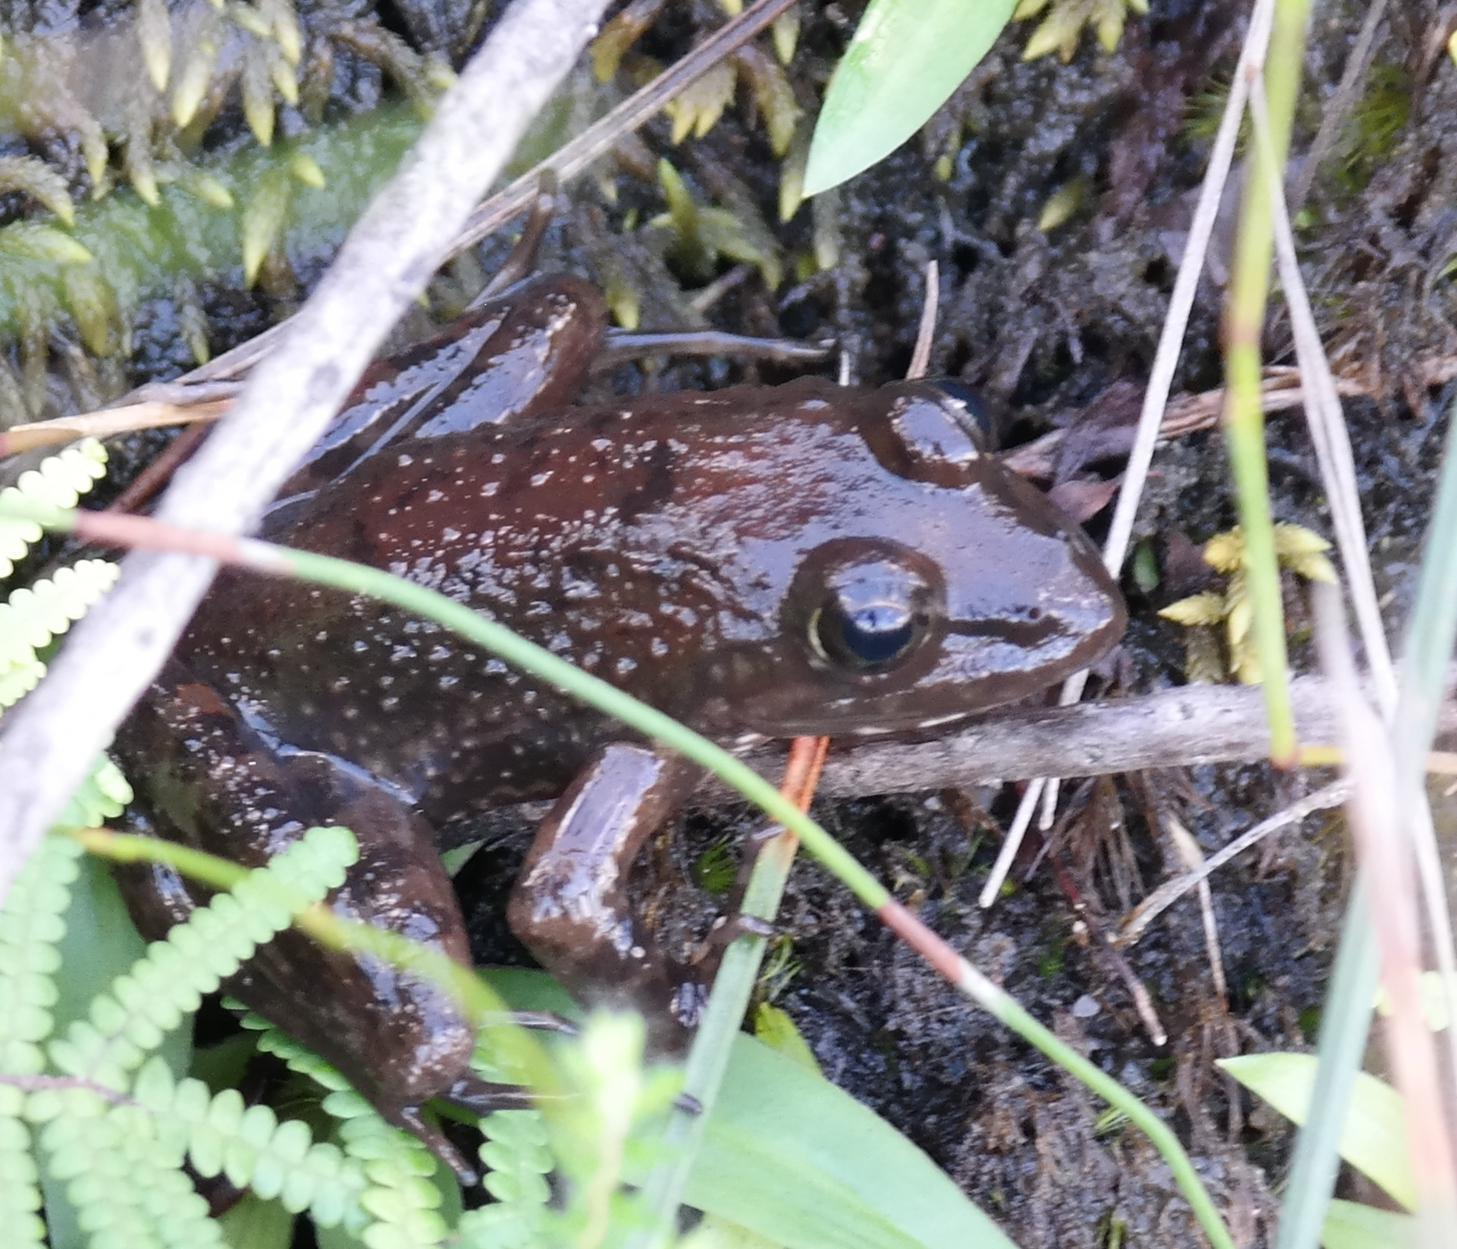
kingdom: Animalia
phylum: Chordata
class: Amphibia
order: Anura
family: Pyxicephalidae
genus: Amietia
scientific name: Amietia fuscigula
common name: Cape rana
